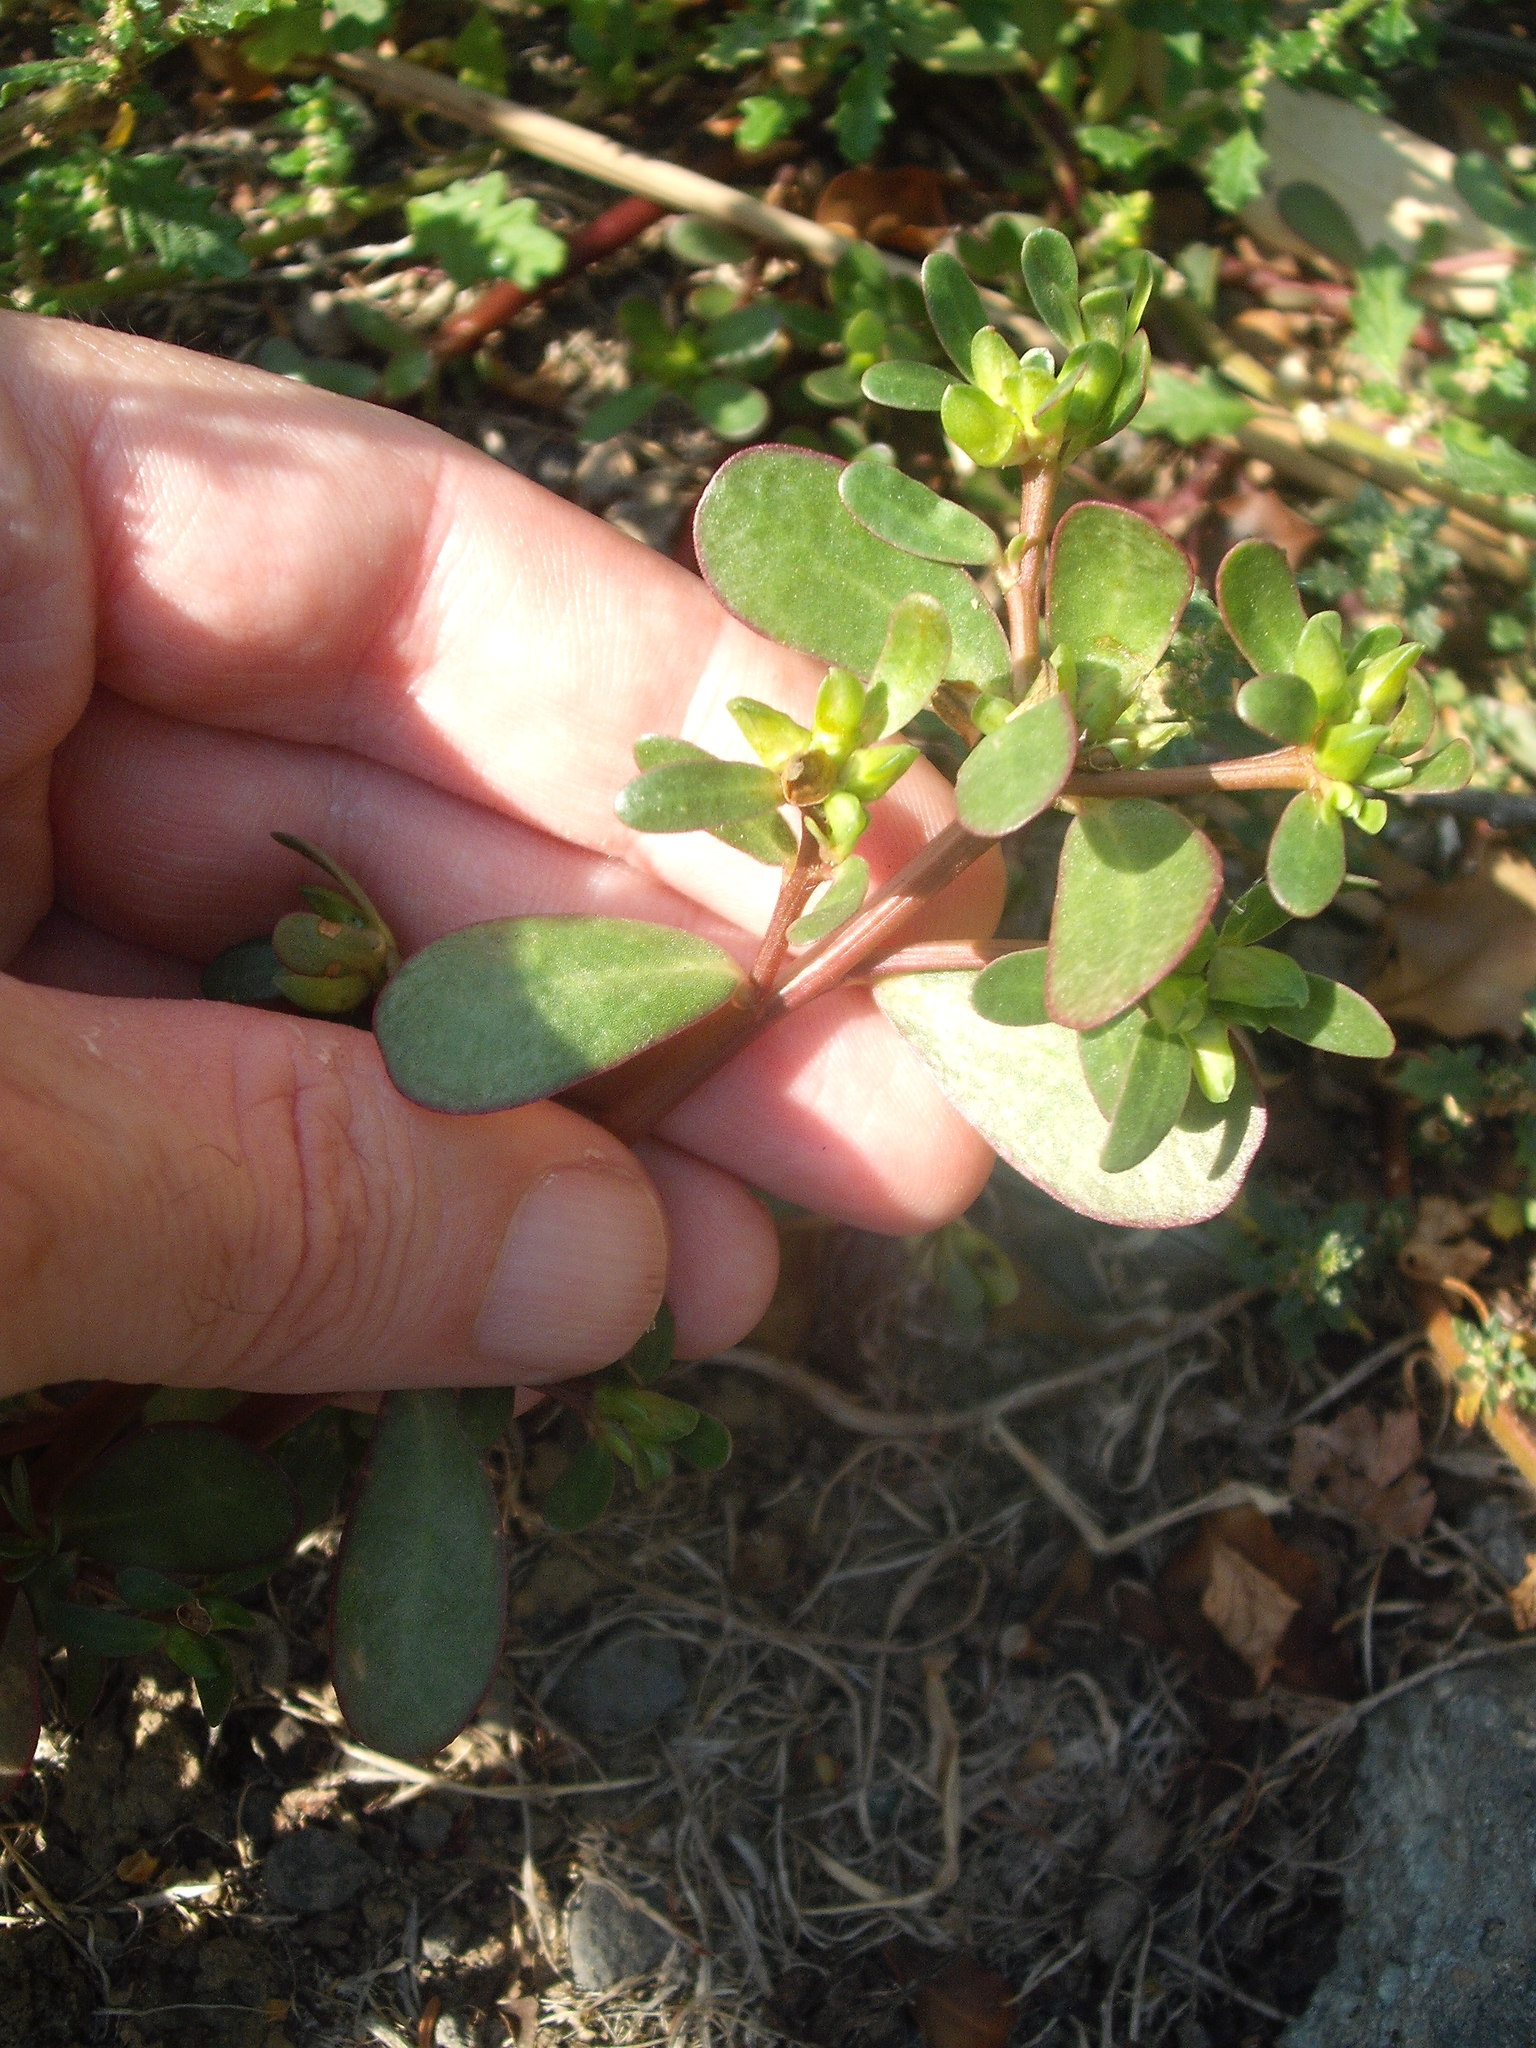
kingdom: Plantae
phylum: Tracheophyta
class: Magnoliopsida
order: Caryophyllales
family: Portulacaceae
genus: Portulaca
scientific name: Portulaca oleracea
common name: Common purslane
